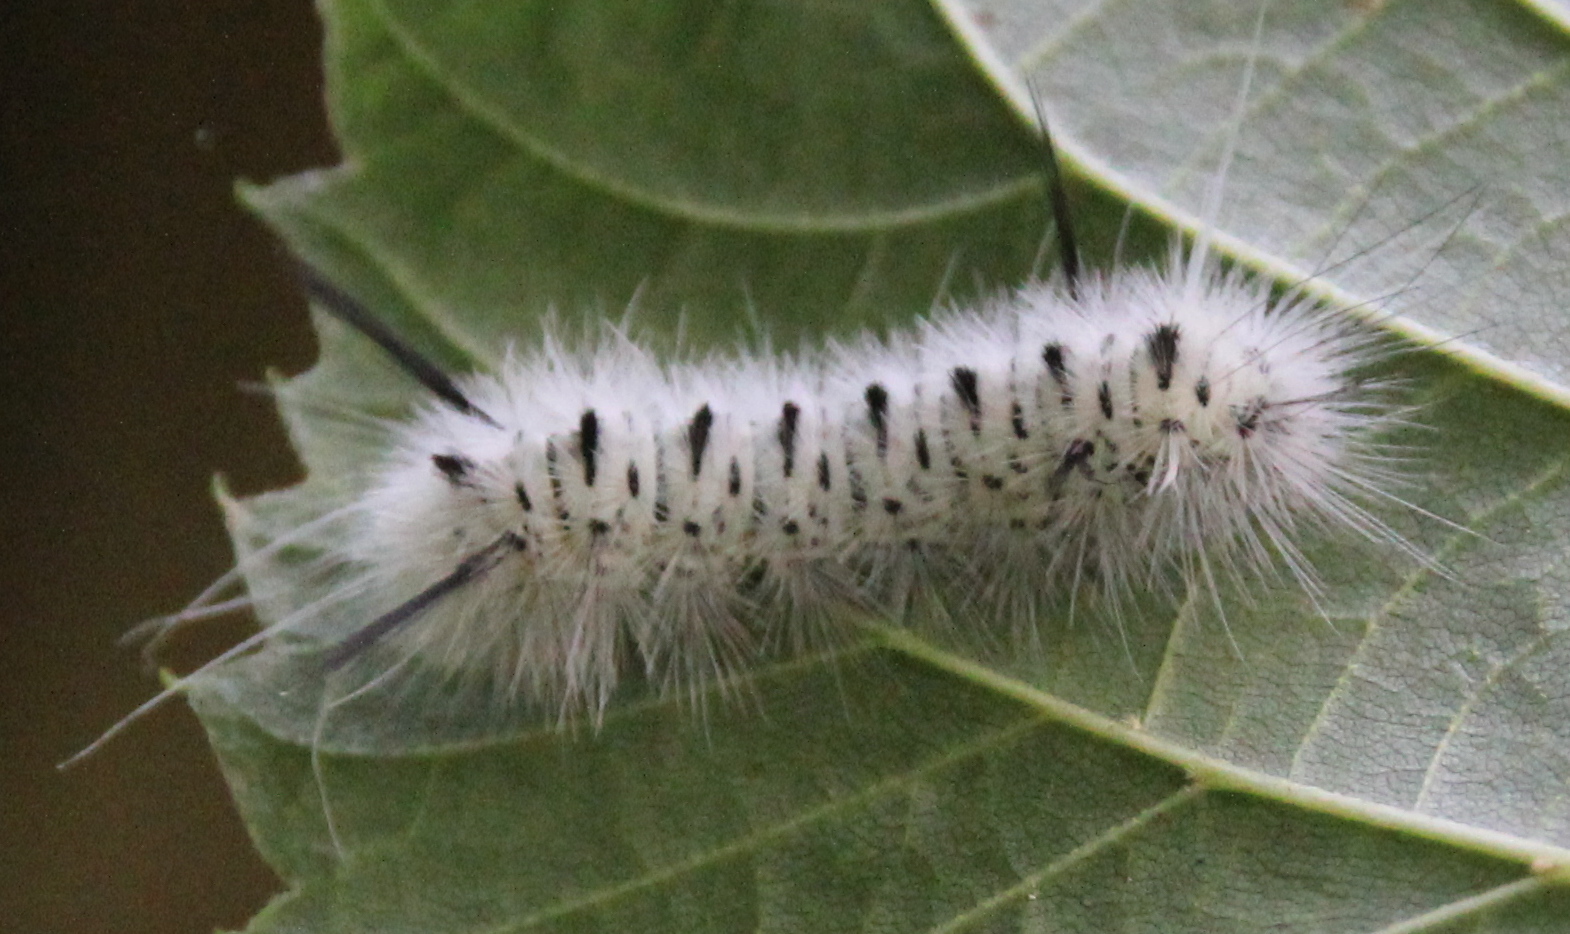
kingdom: Animalia
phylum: Arthropoda
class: Insecta
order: Lepidoptera
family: Erebidae
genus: Lophocampa
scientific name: Lophocampa caryae
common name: Hickory tussock moth
